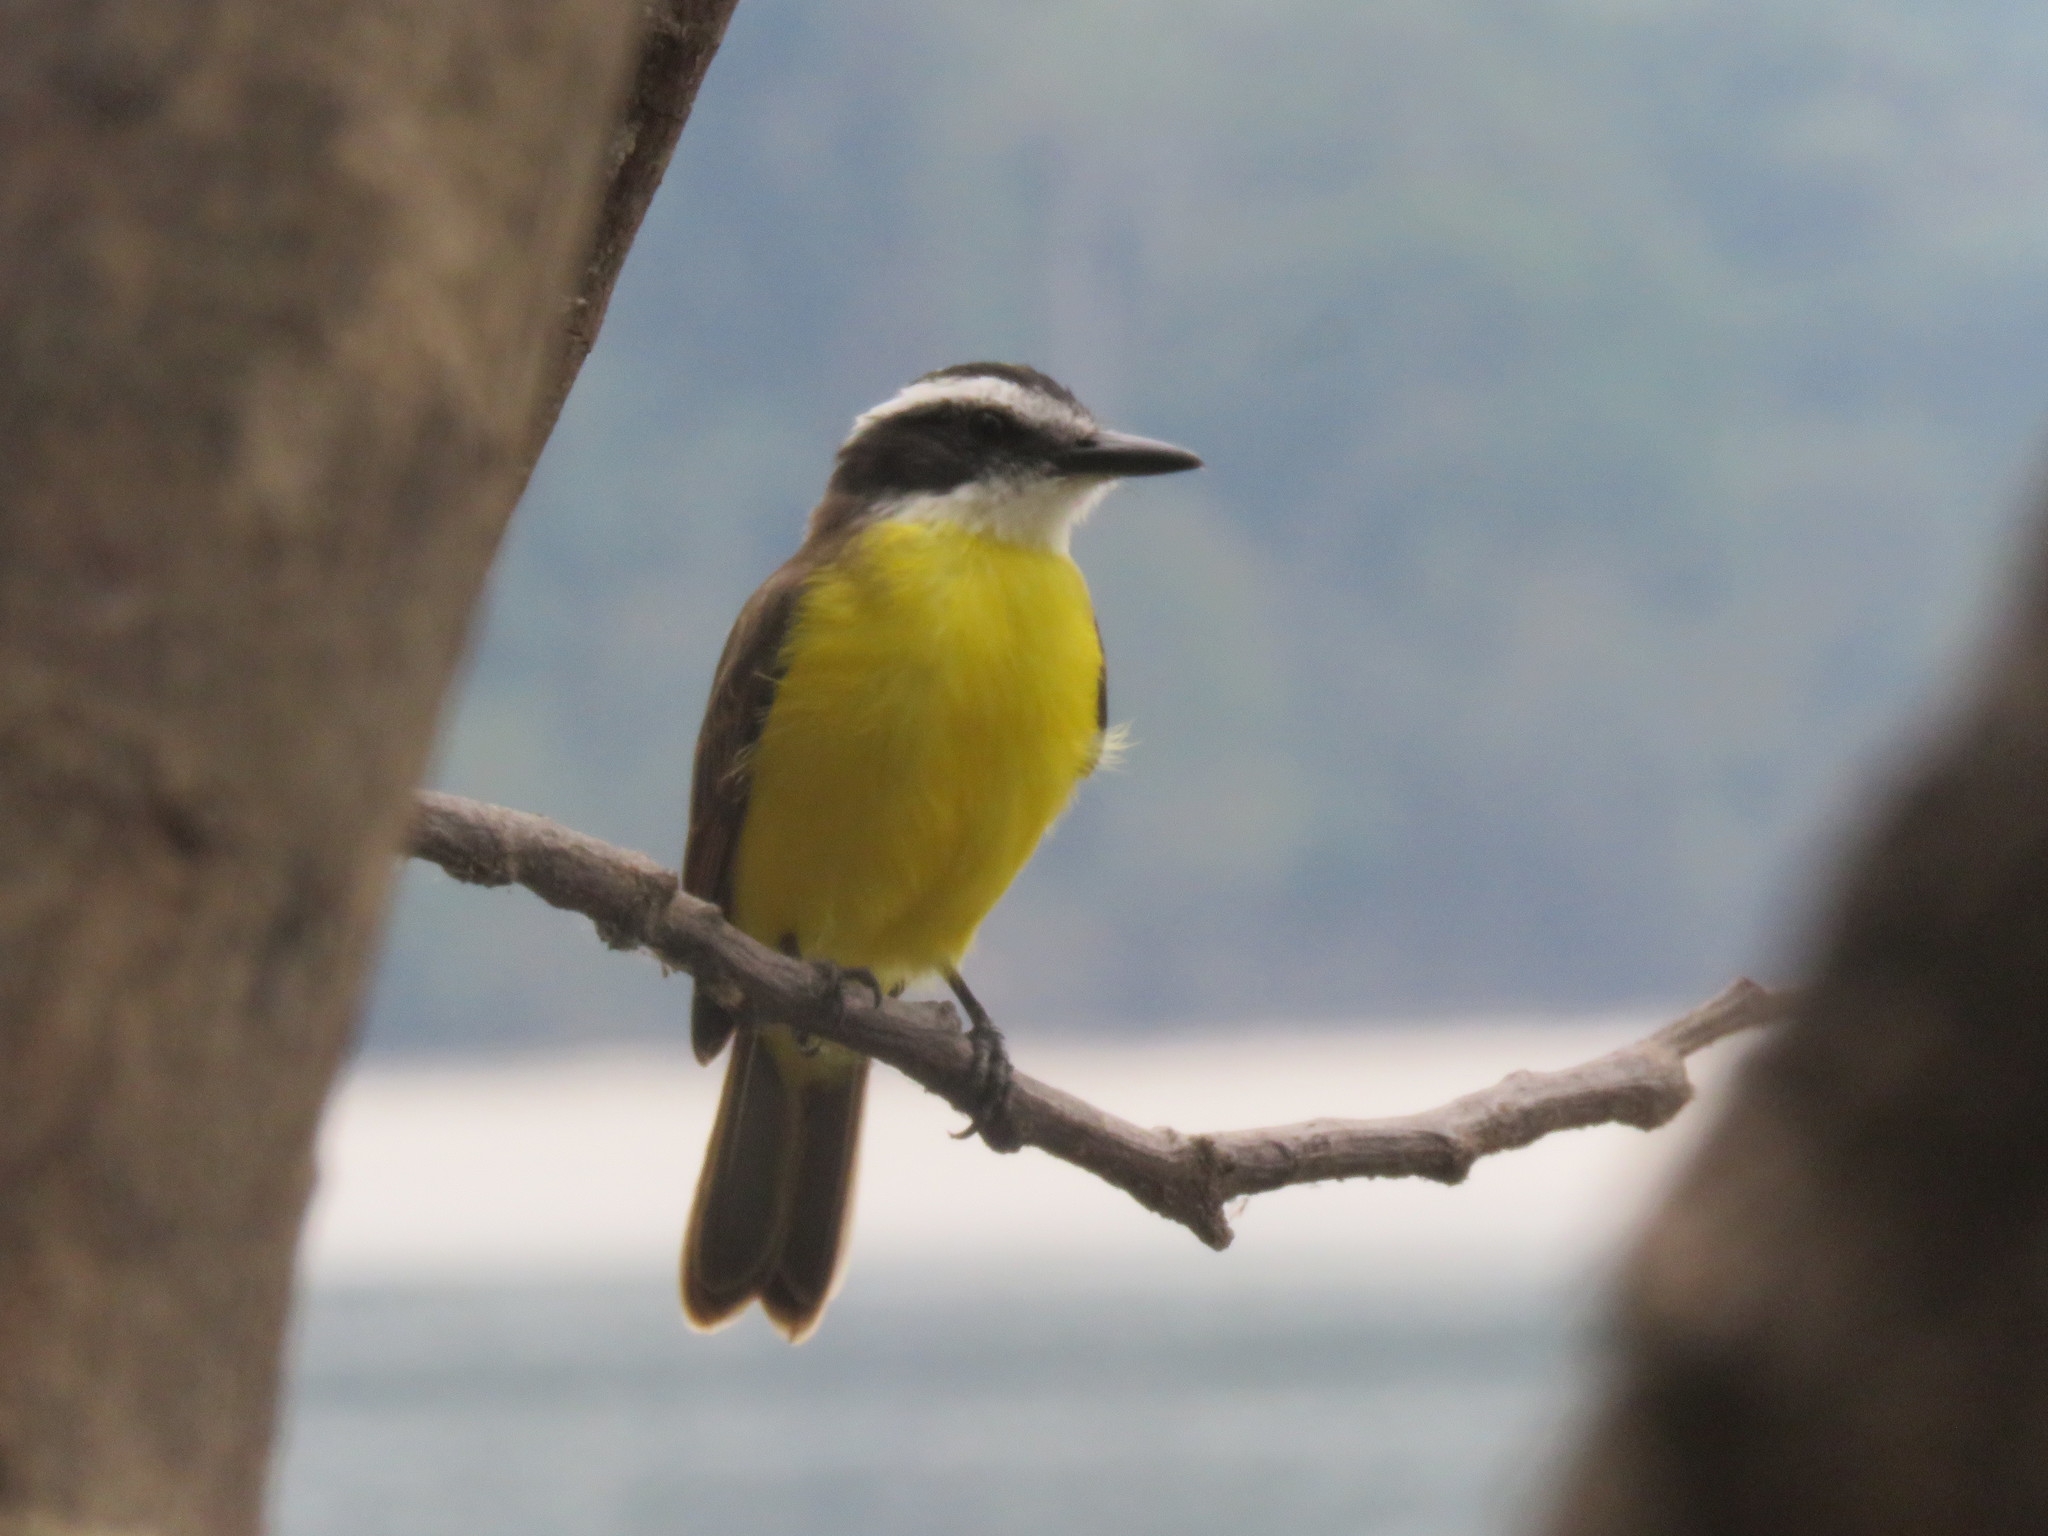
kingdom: Animalia
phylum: Chordata
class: Aves
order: Passeriformes
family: Tyrannidae
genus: Pitangus
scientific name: Pitangus lictor
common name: Lesser kiskadee
